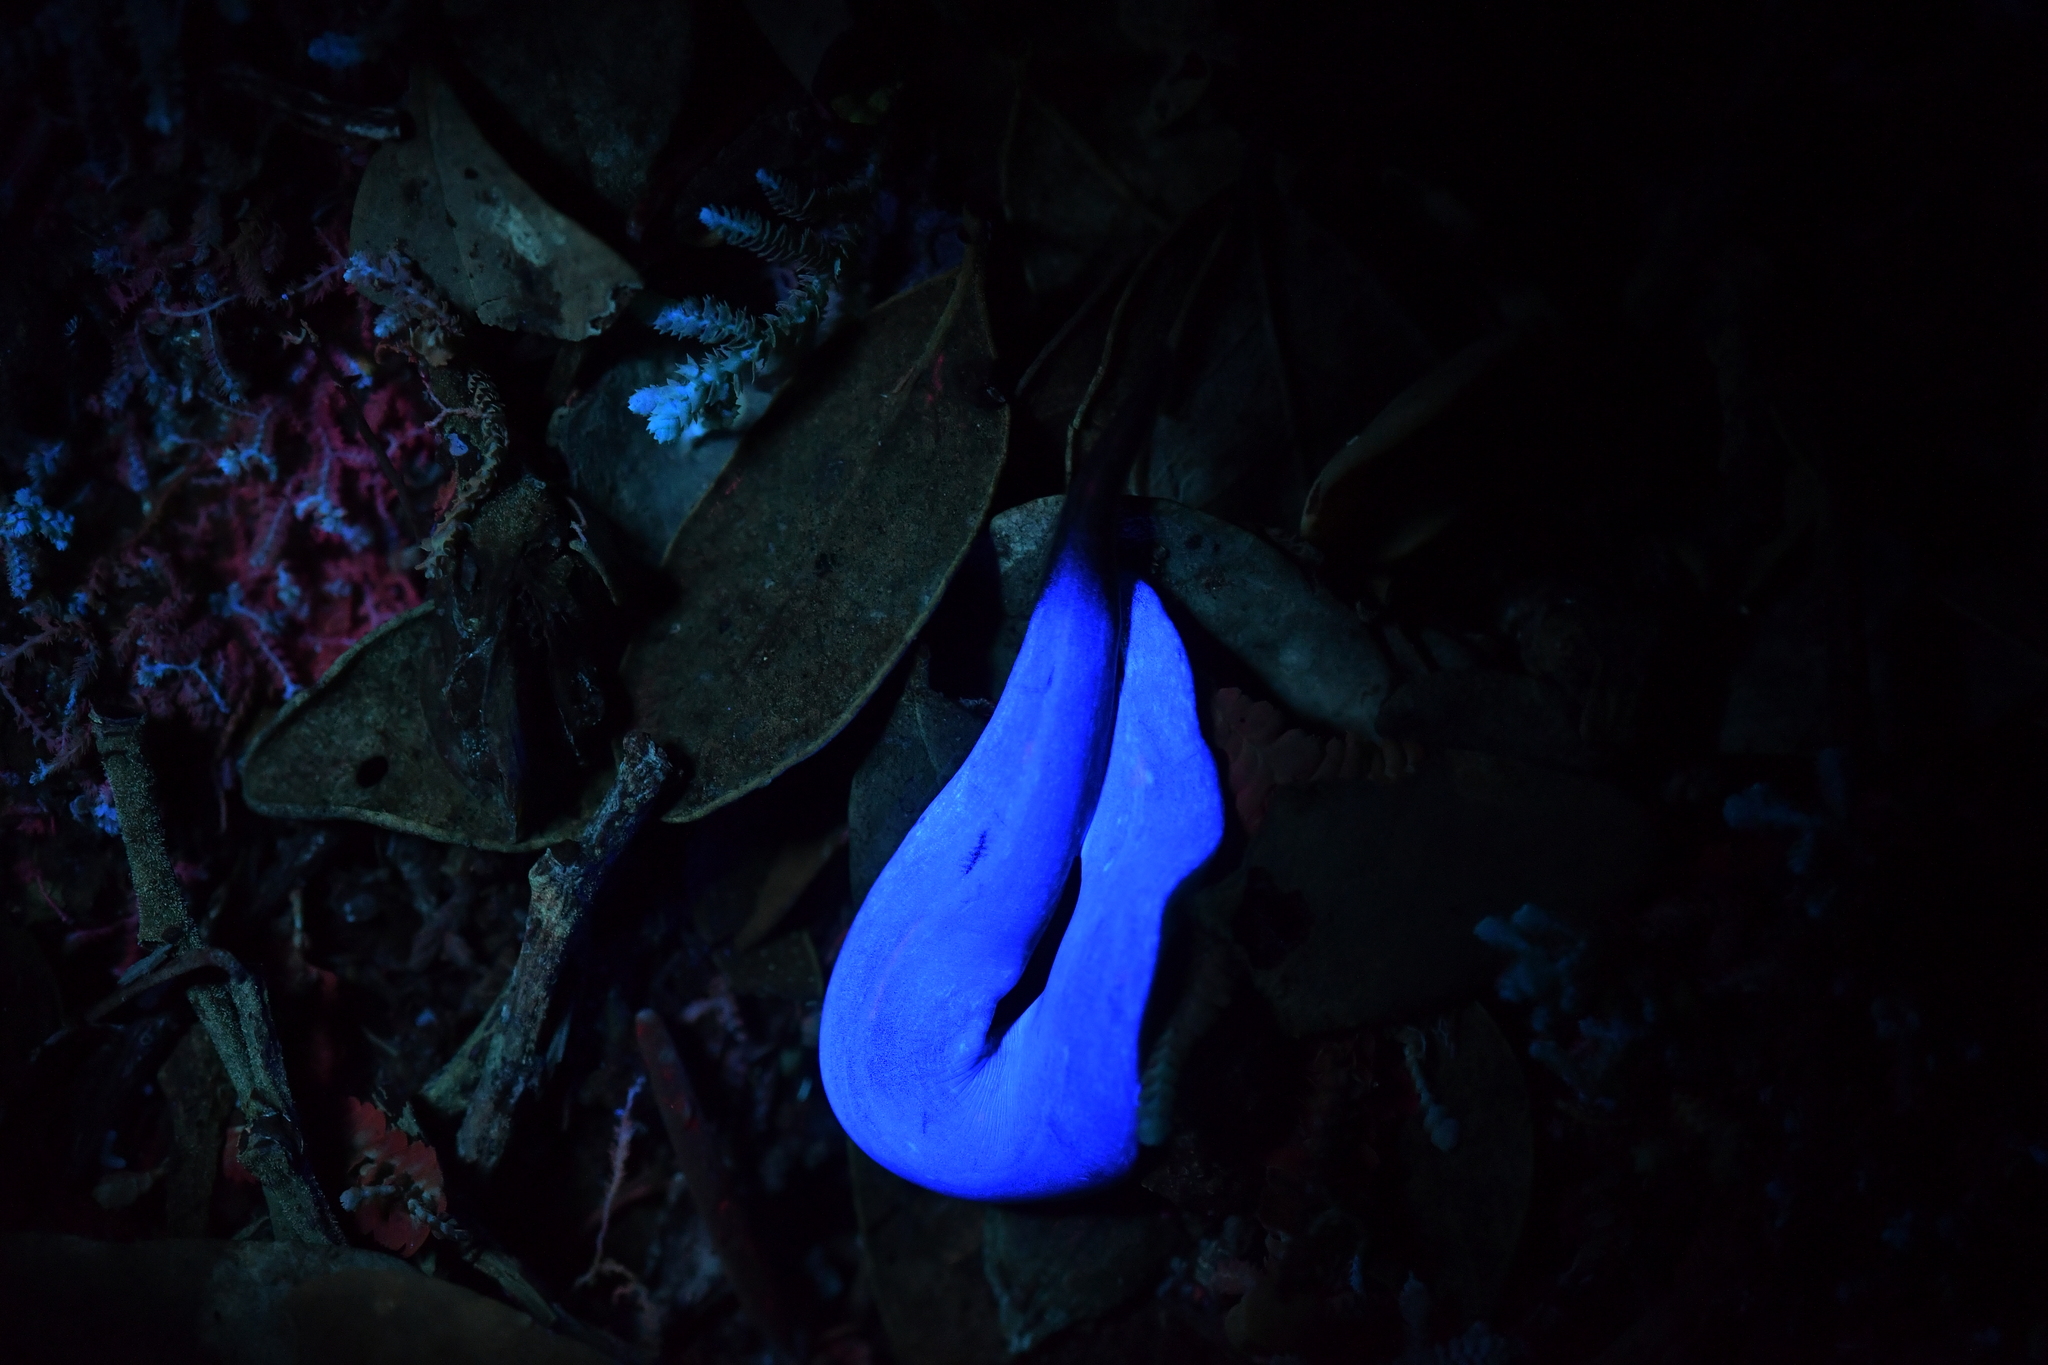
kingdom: Animalia
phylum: Platyhelminthes
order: Tricladida
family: Geoplanidae
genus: Australopacifica
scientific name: Australopacifica laingii
